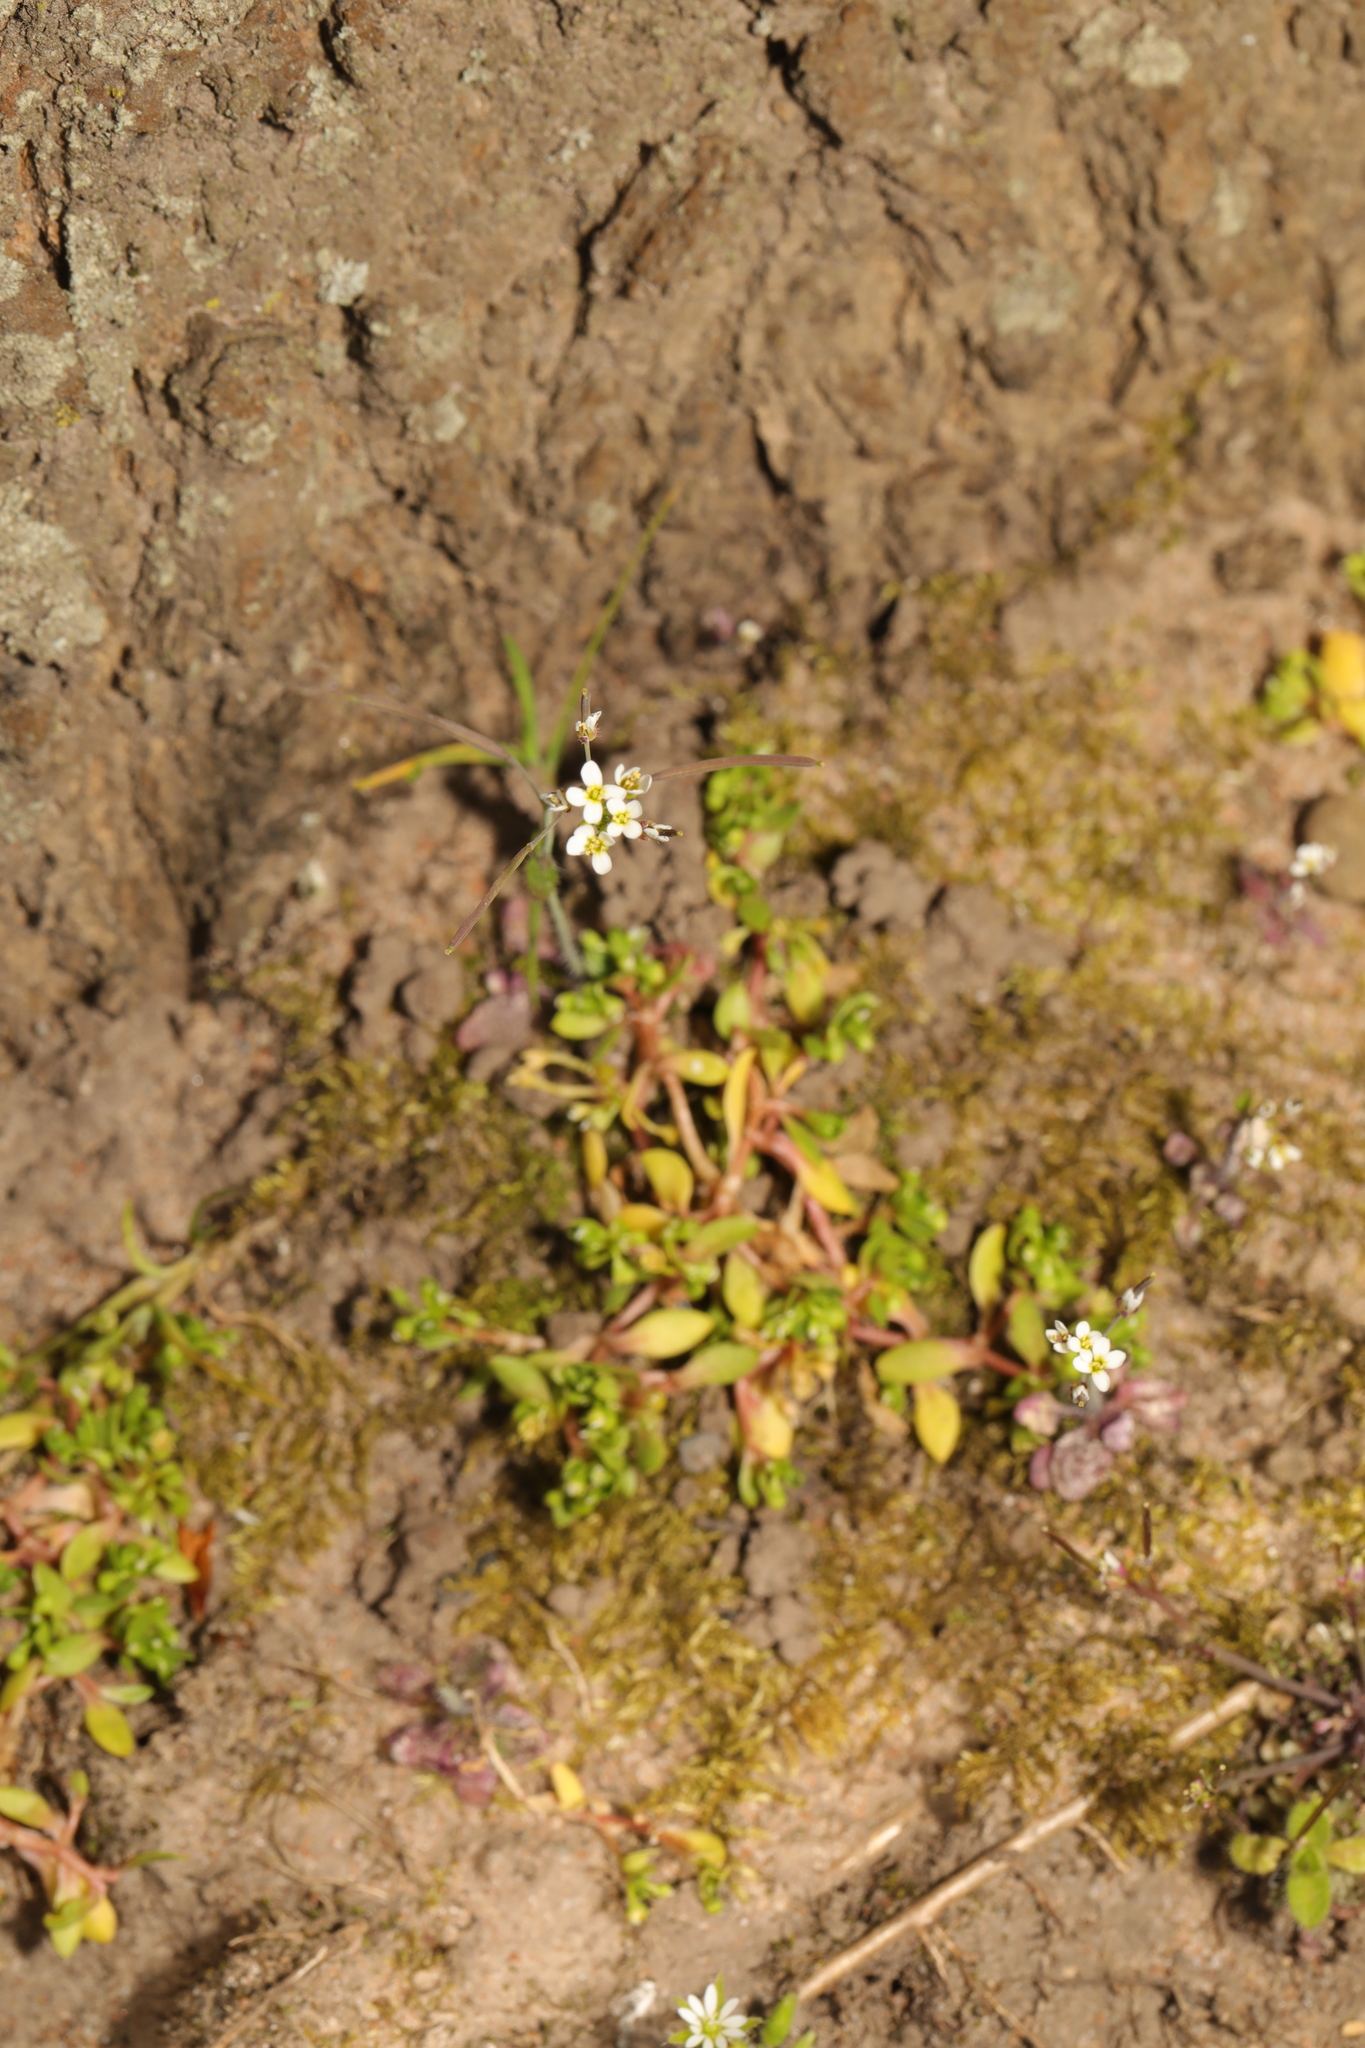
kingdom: Plantae
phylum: Tracheophyta
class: Magnoliopsida
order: Brassicales
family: Brassicaceae
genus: Arabidopsis
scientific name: Arabidopsis thaliana
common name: Thale cress
